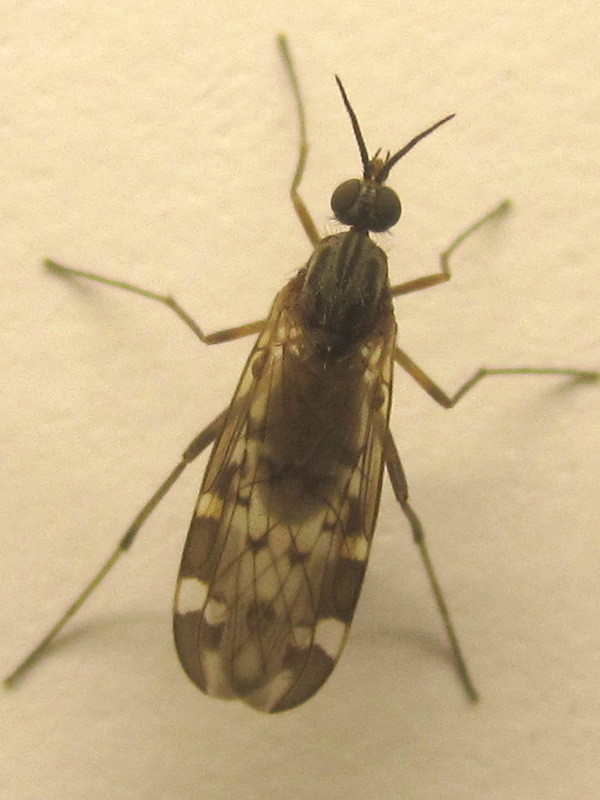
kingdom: Animalia
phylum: Arthropoda
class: Insecta
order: Diptera
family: Anisopodidae
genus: Sylvicola
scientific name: Sylvicola alternata
